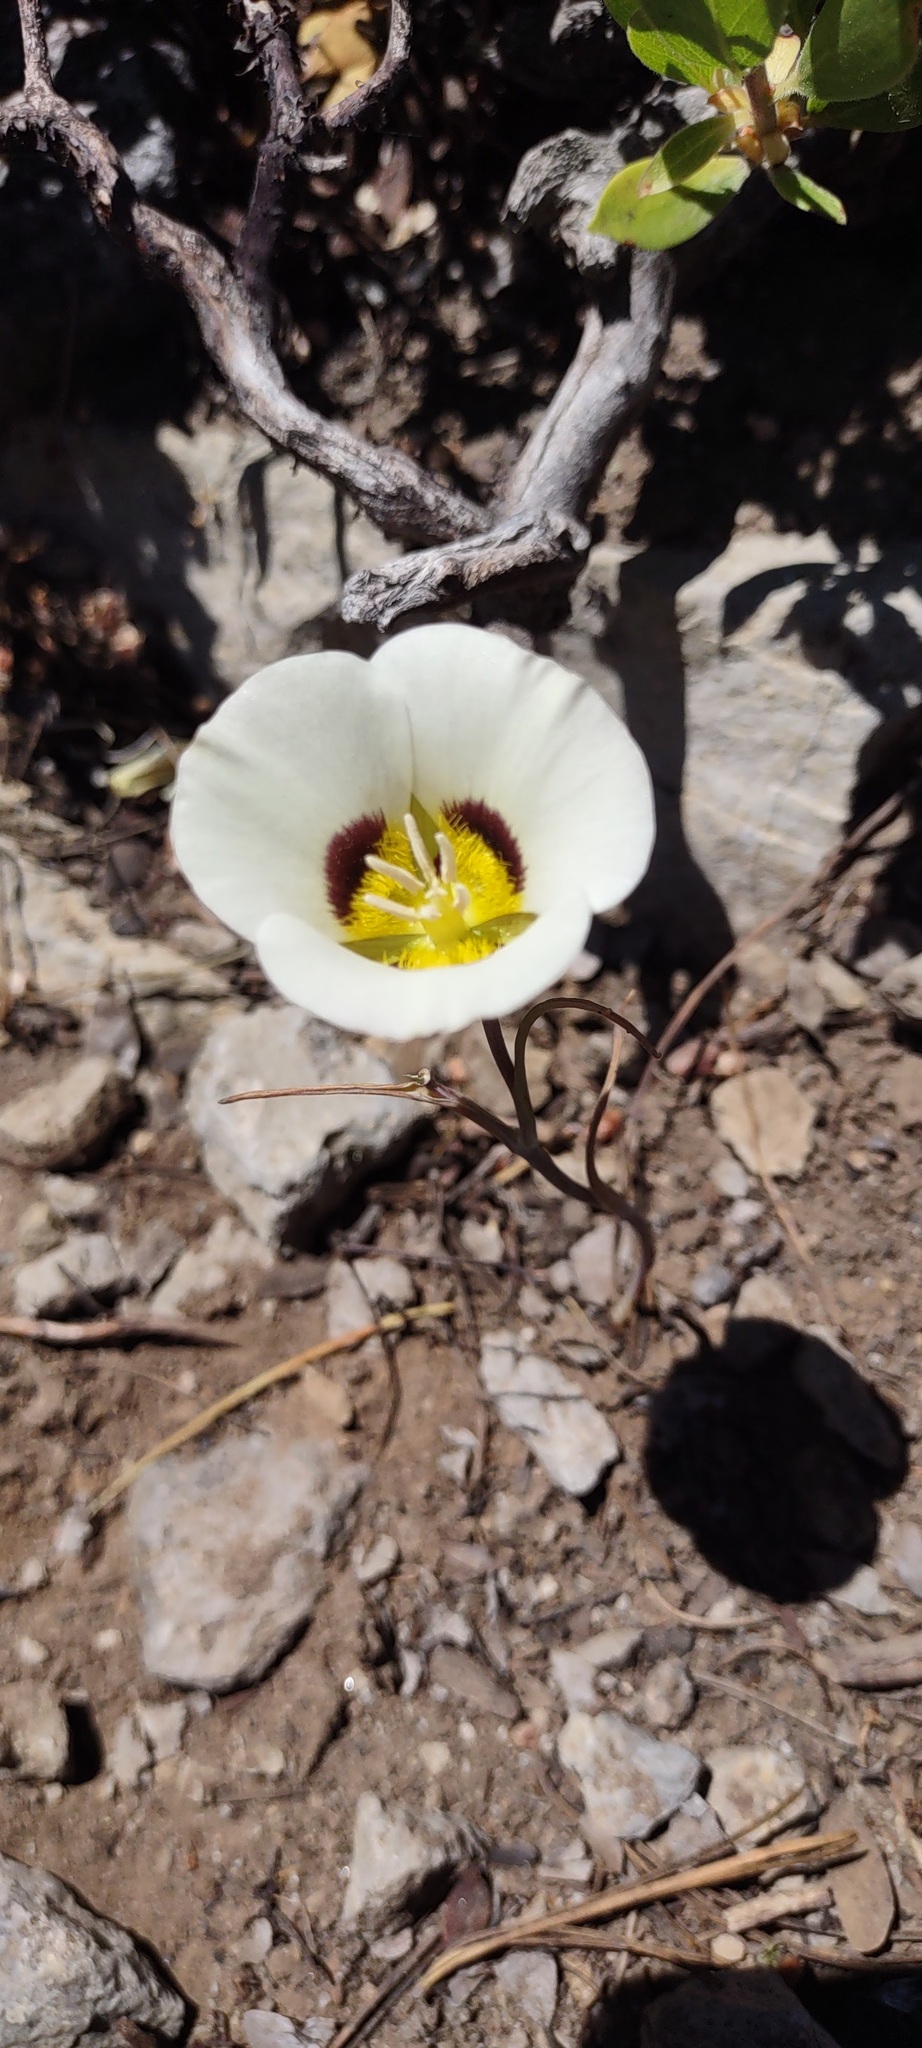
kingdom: Plantae
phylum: Tracheophyta
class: Liliopsida
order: Liliales
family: Liliaceae
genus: Calochortus
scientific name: Calochortus leichtlinii
